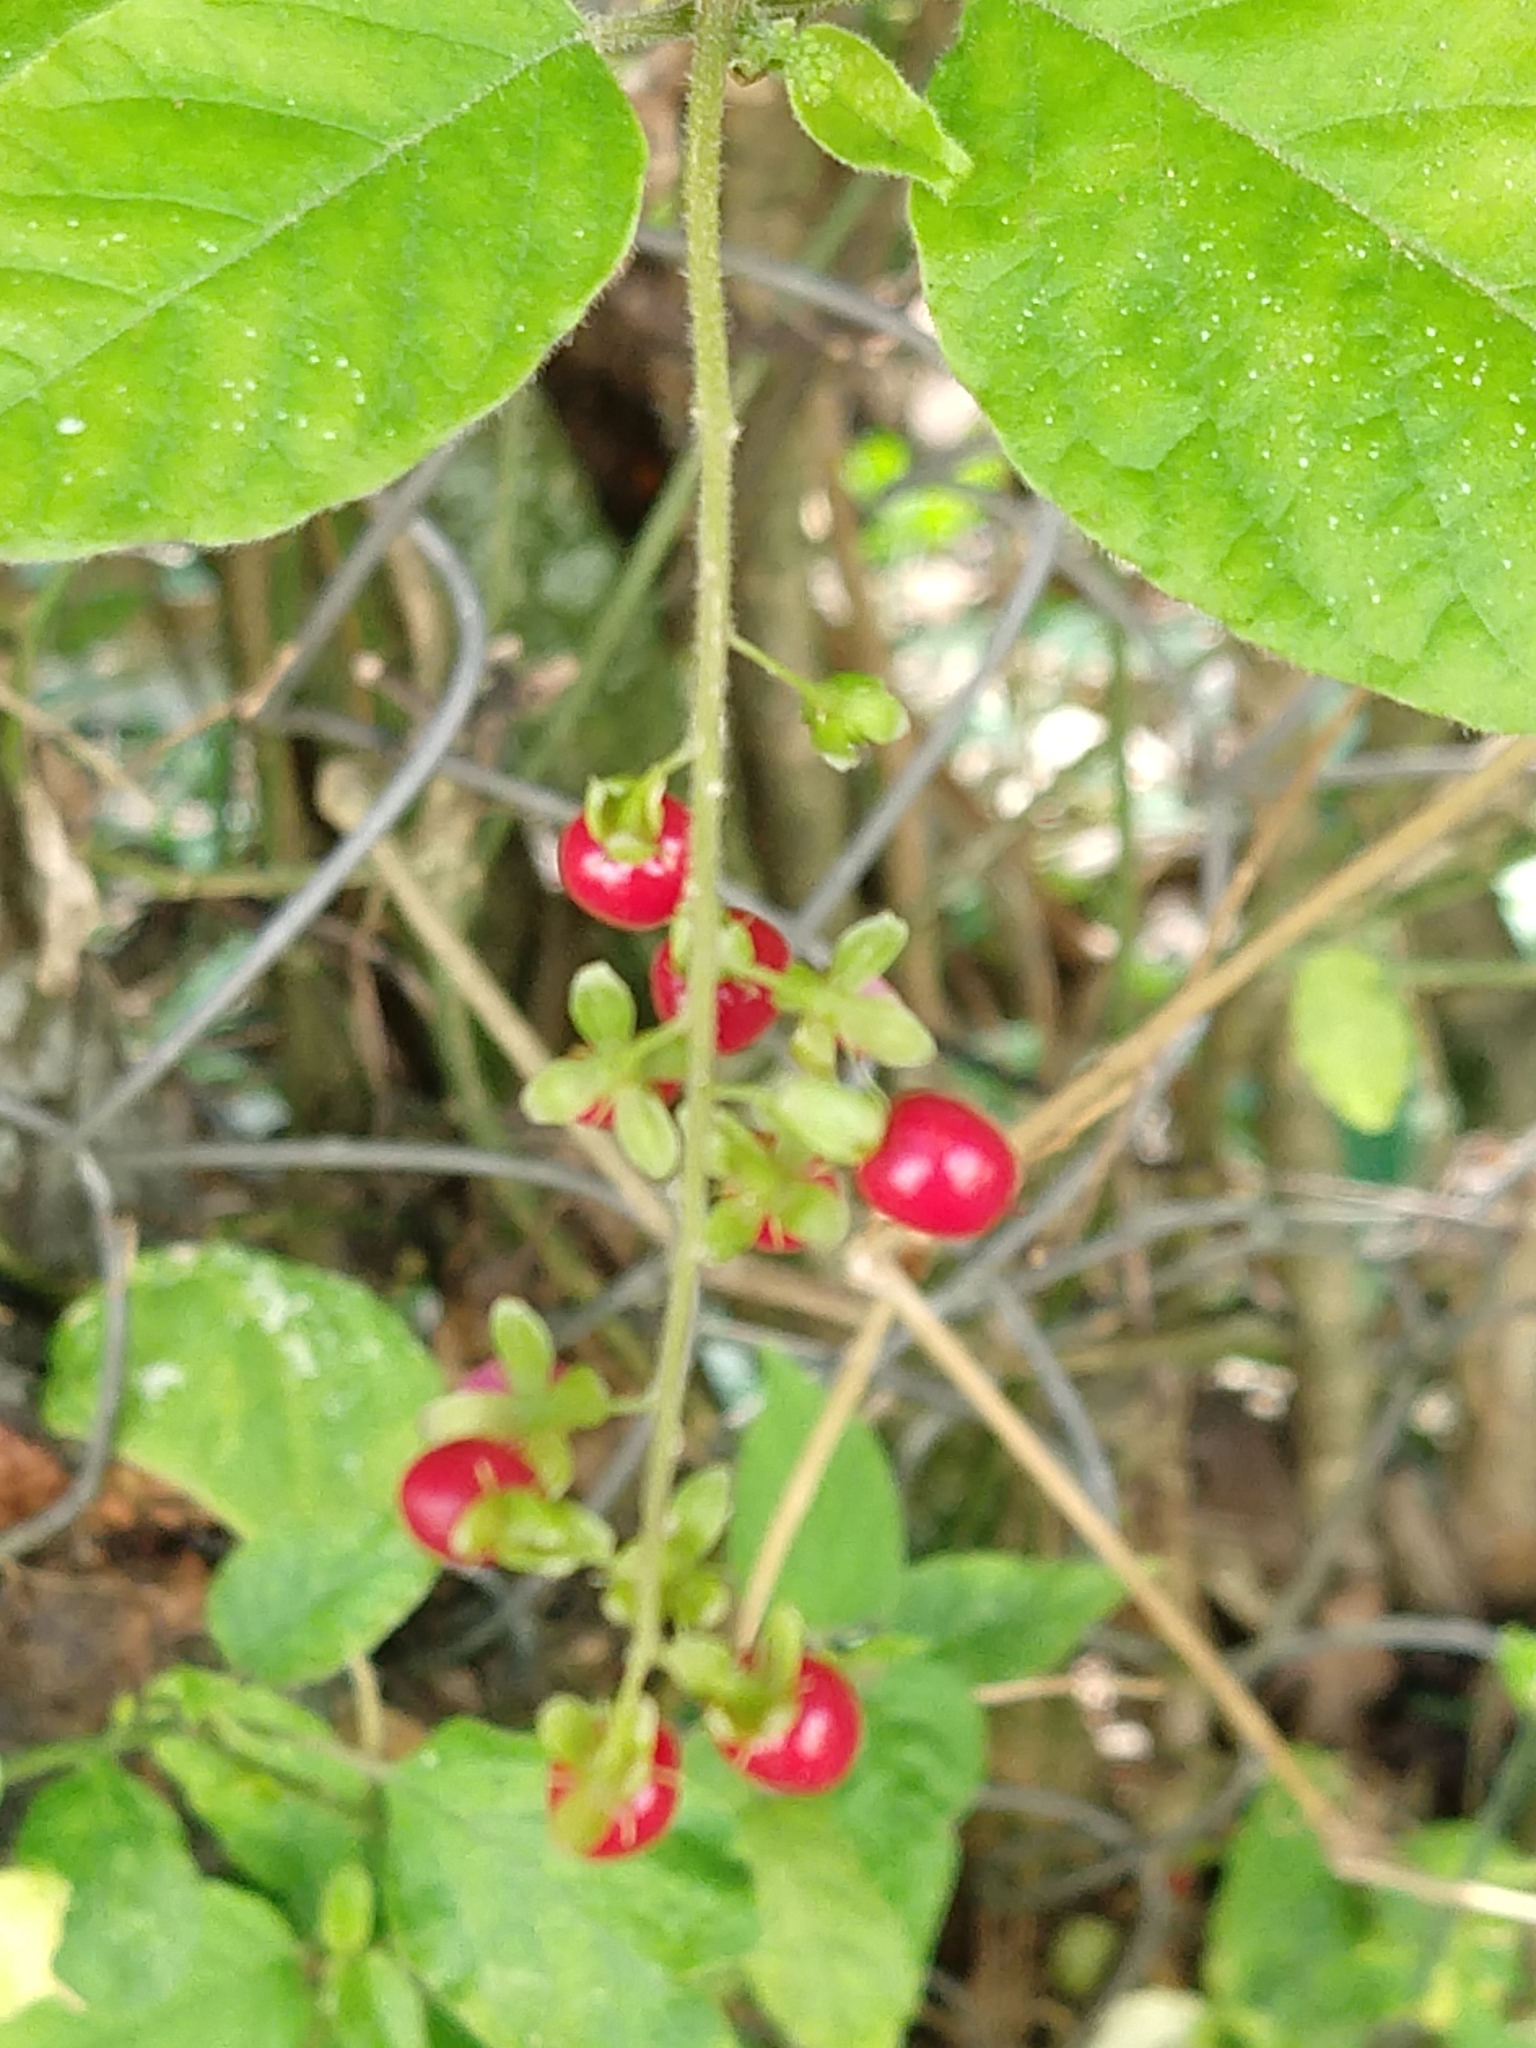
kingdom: Plantae
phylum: Tracheophyta
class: Magnoliopsida
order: Caryophyllales
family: Phytolaccaceae
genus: Rivina
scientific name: Rivina humilis
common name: Rougeplant
